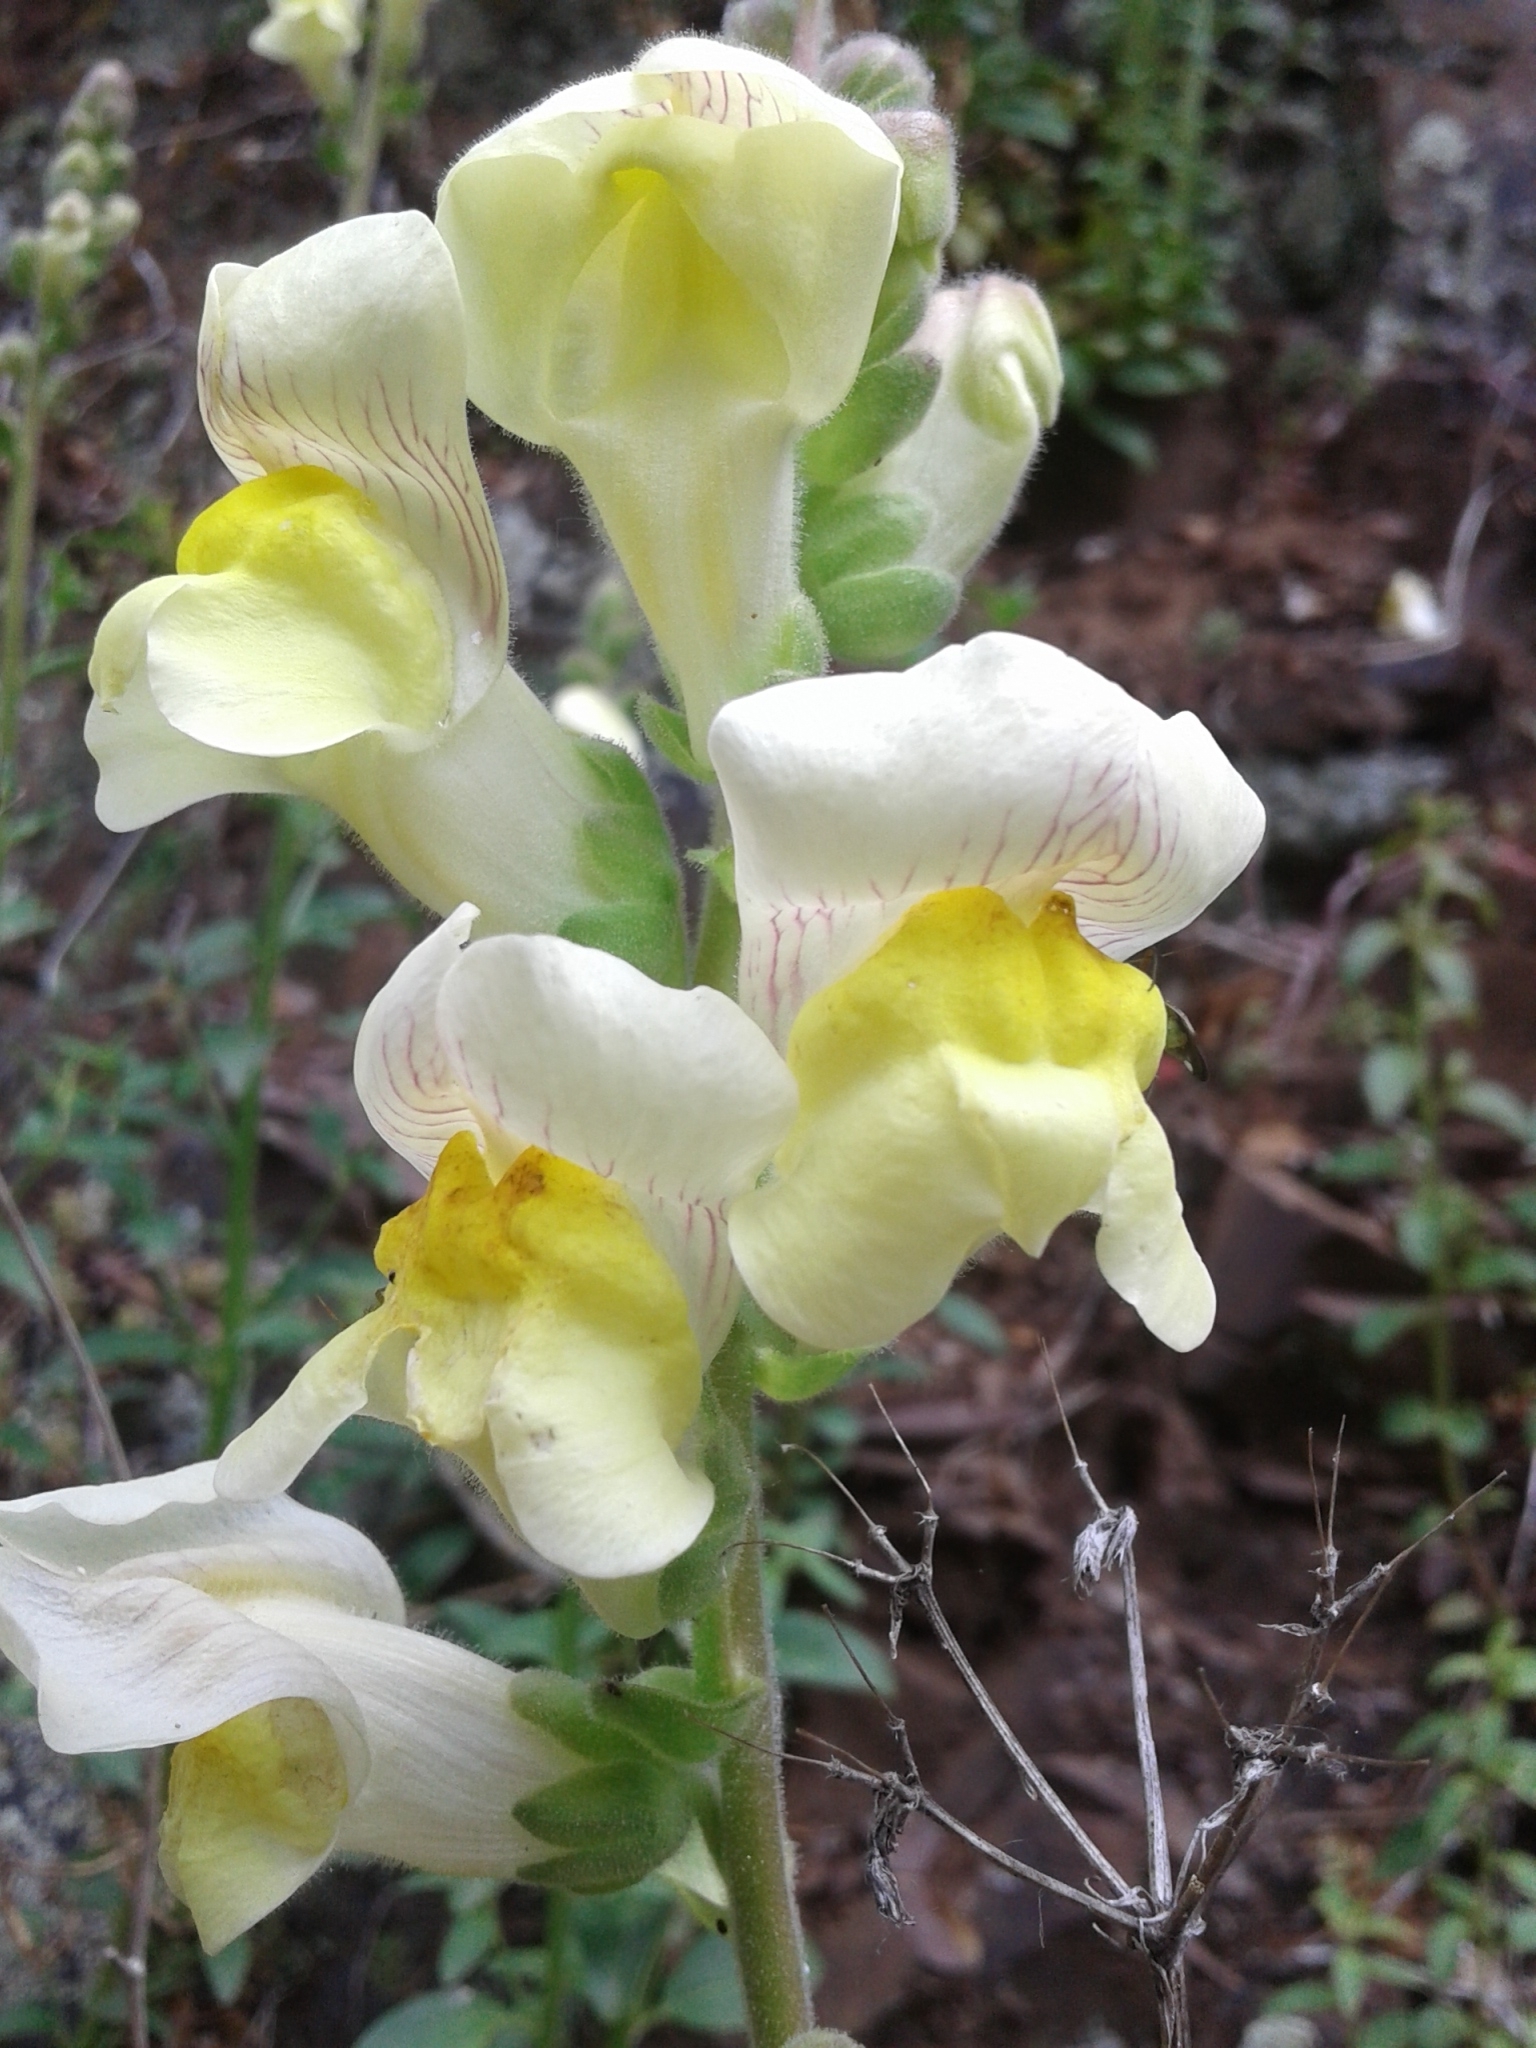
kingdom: Plantae
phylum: Tracheophyta
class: Magnoliopsida
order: Lamiales
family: Plantaginaceae
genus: Antirrhinum
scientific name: Antirrhinum latifolium
